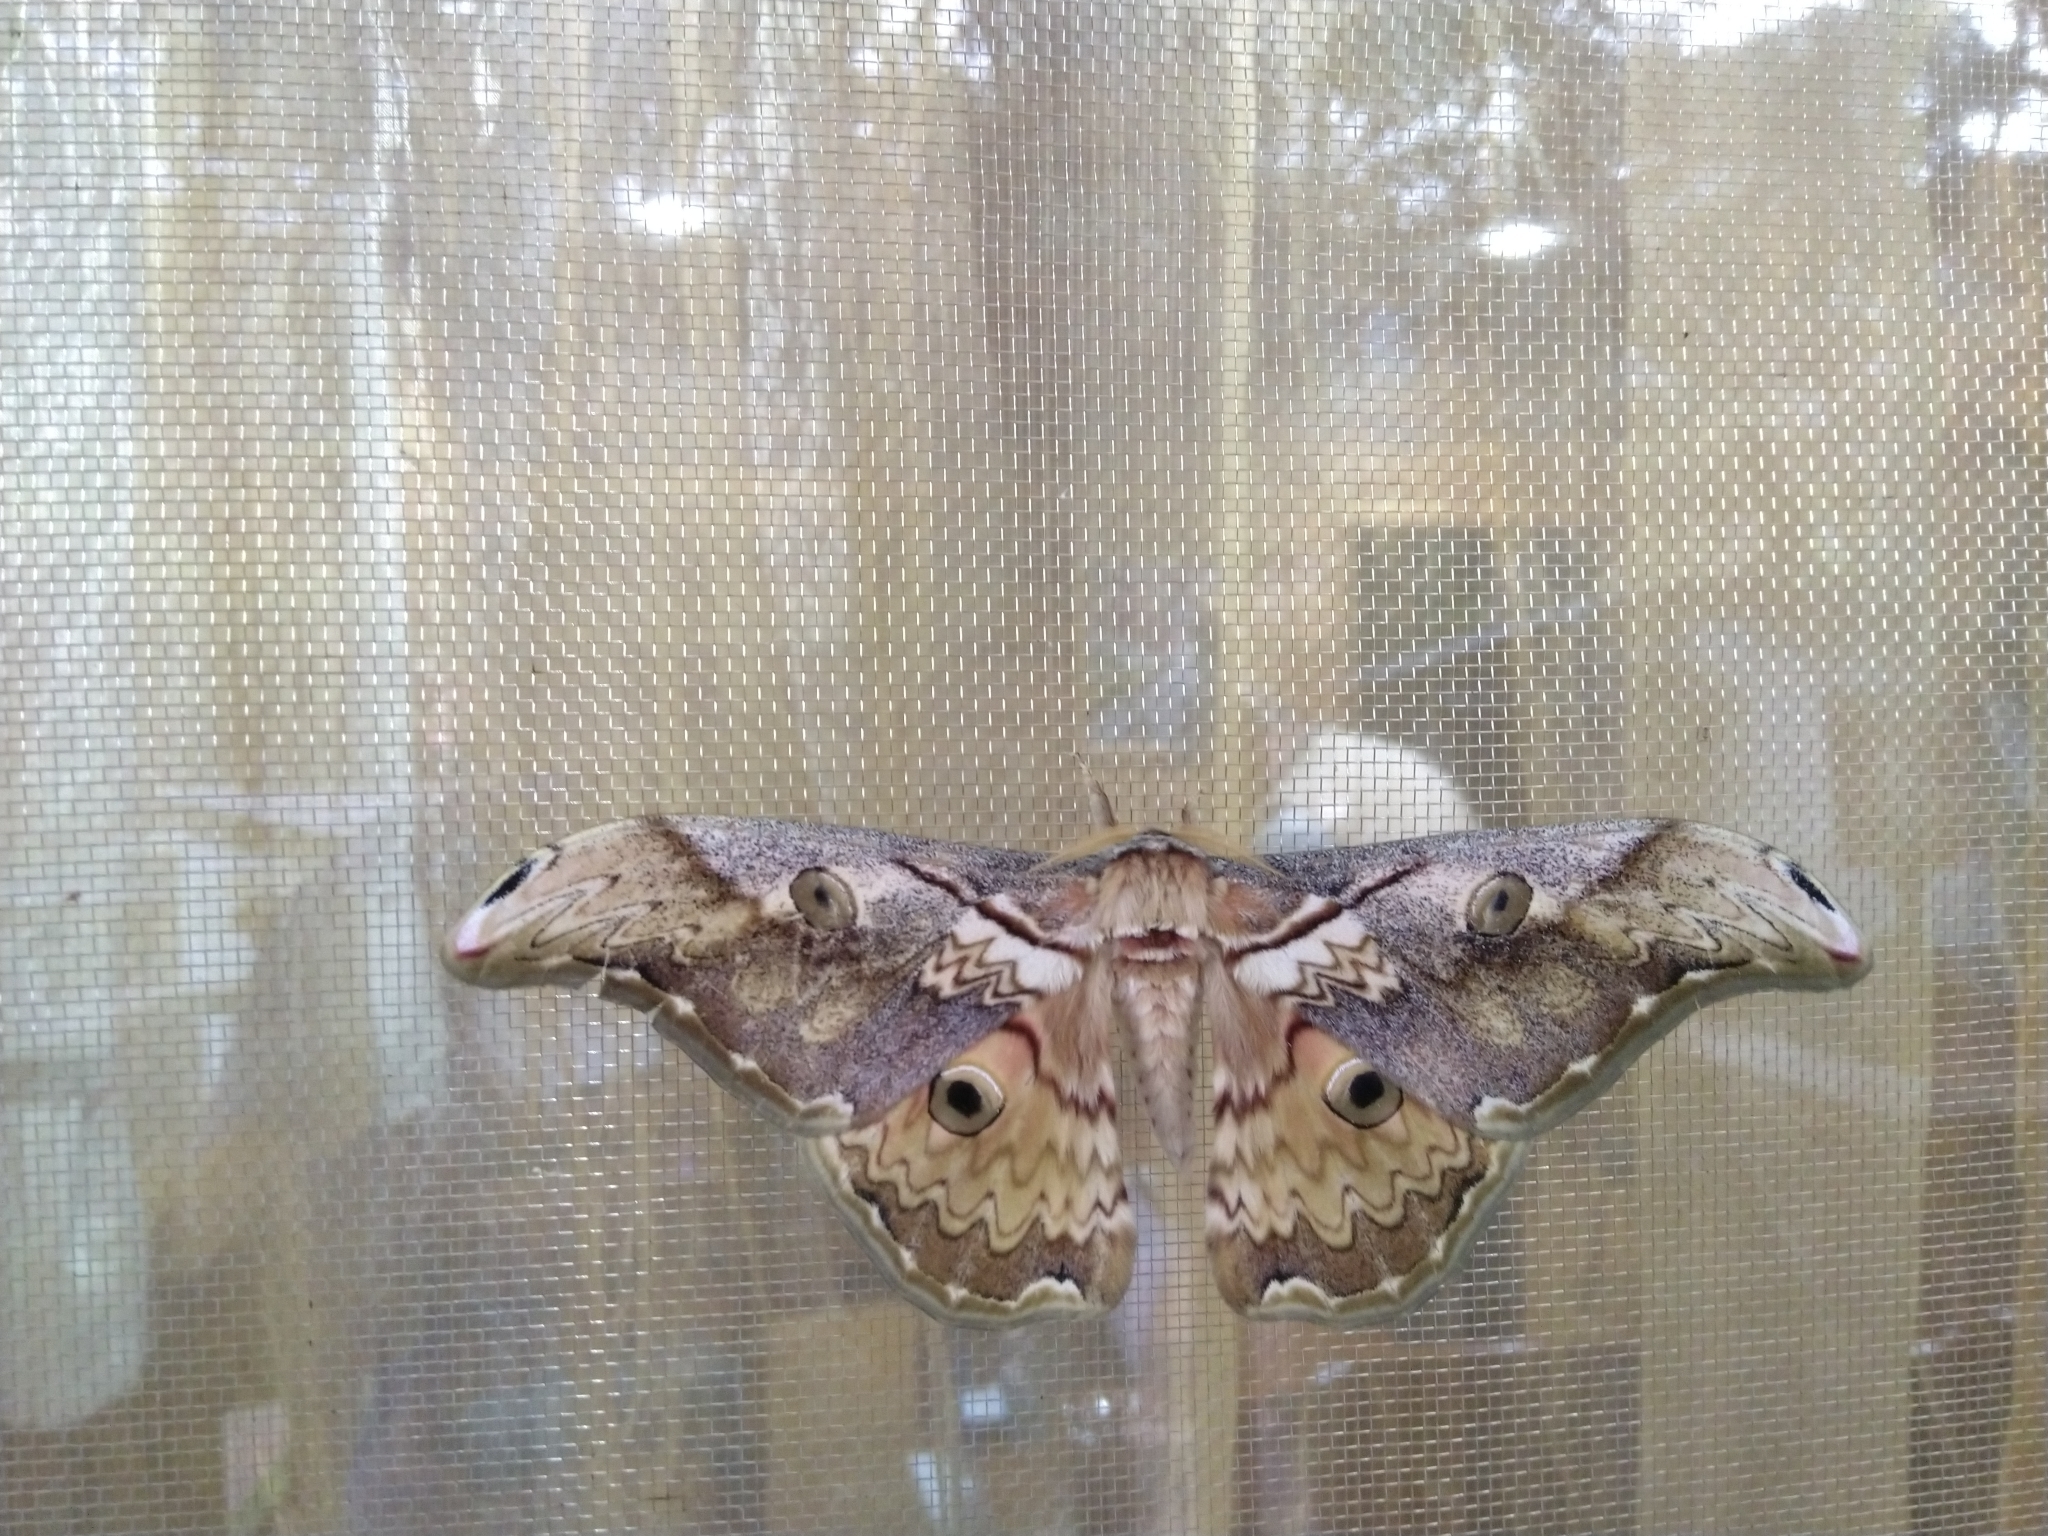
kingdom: Animalia
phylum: Arthropoda
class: Insecta
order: Lepidoptera
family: Saturniidae
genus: Rinaca
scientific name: Rinaca thibeta
